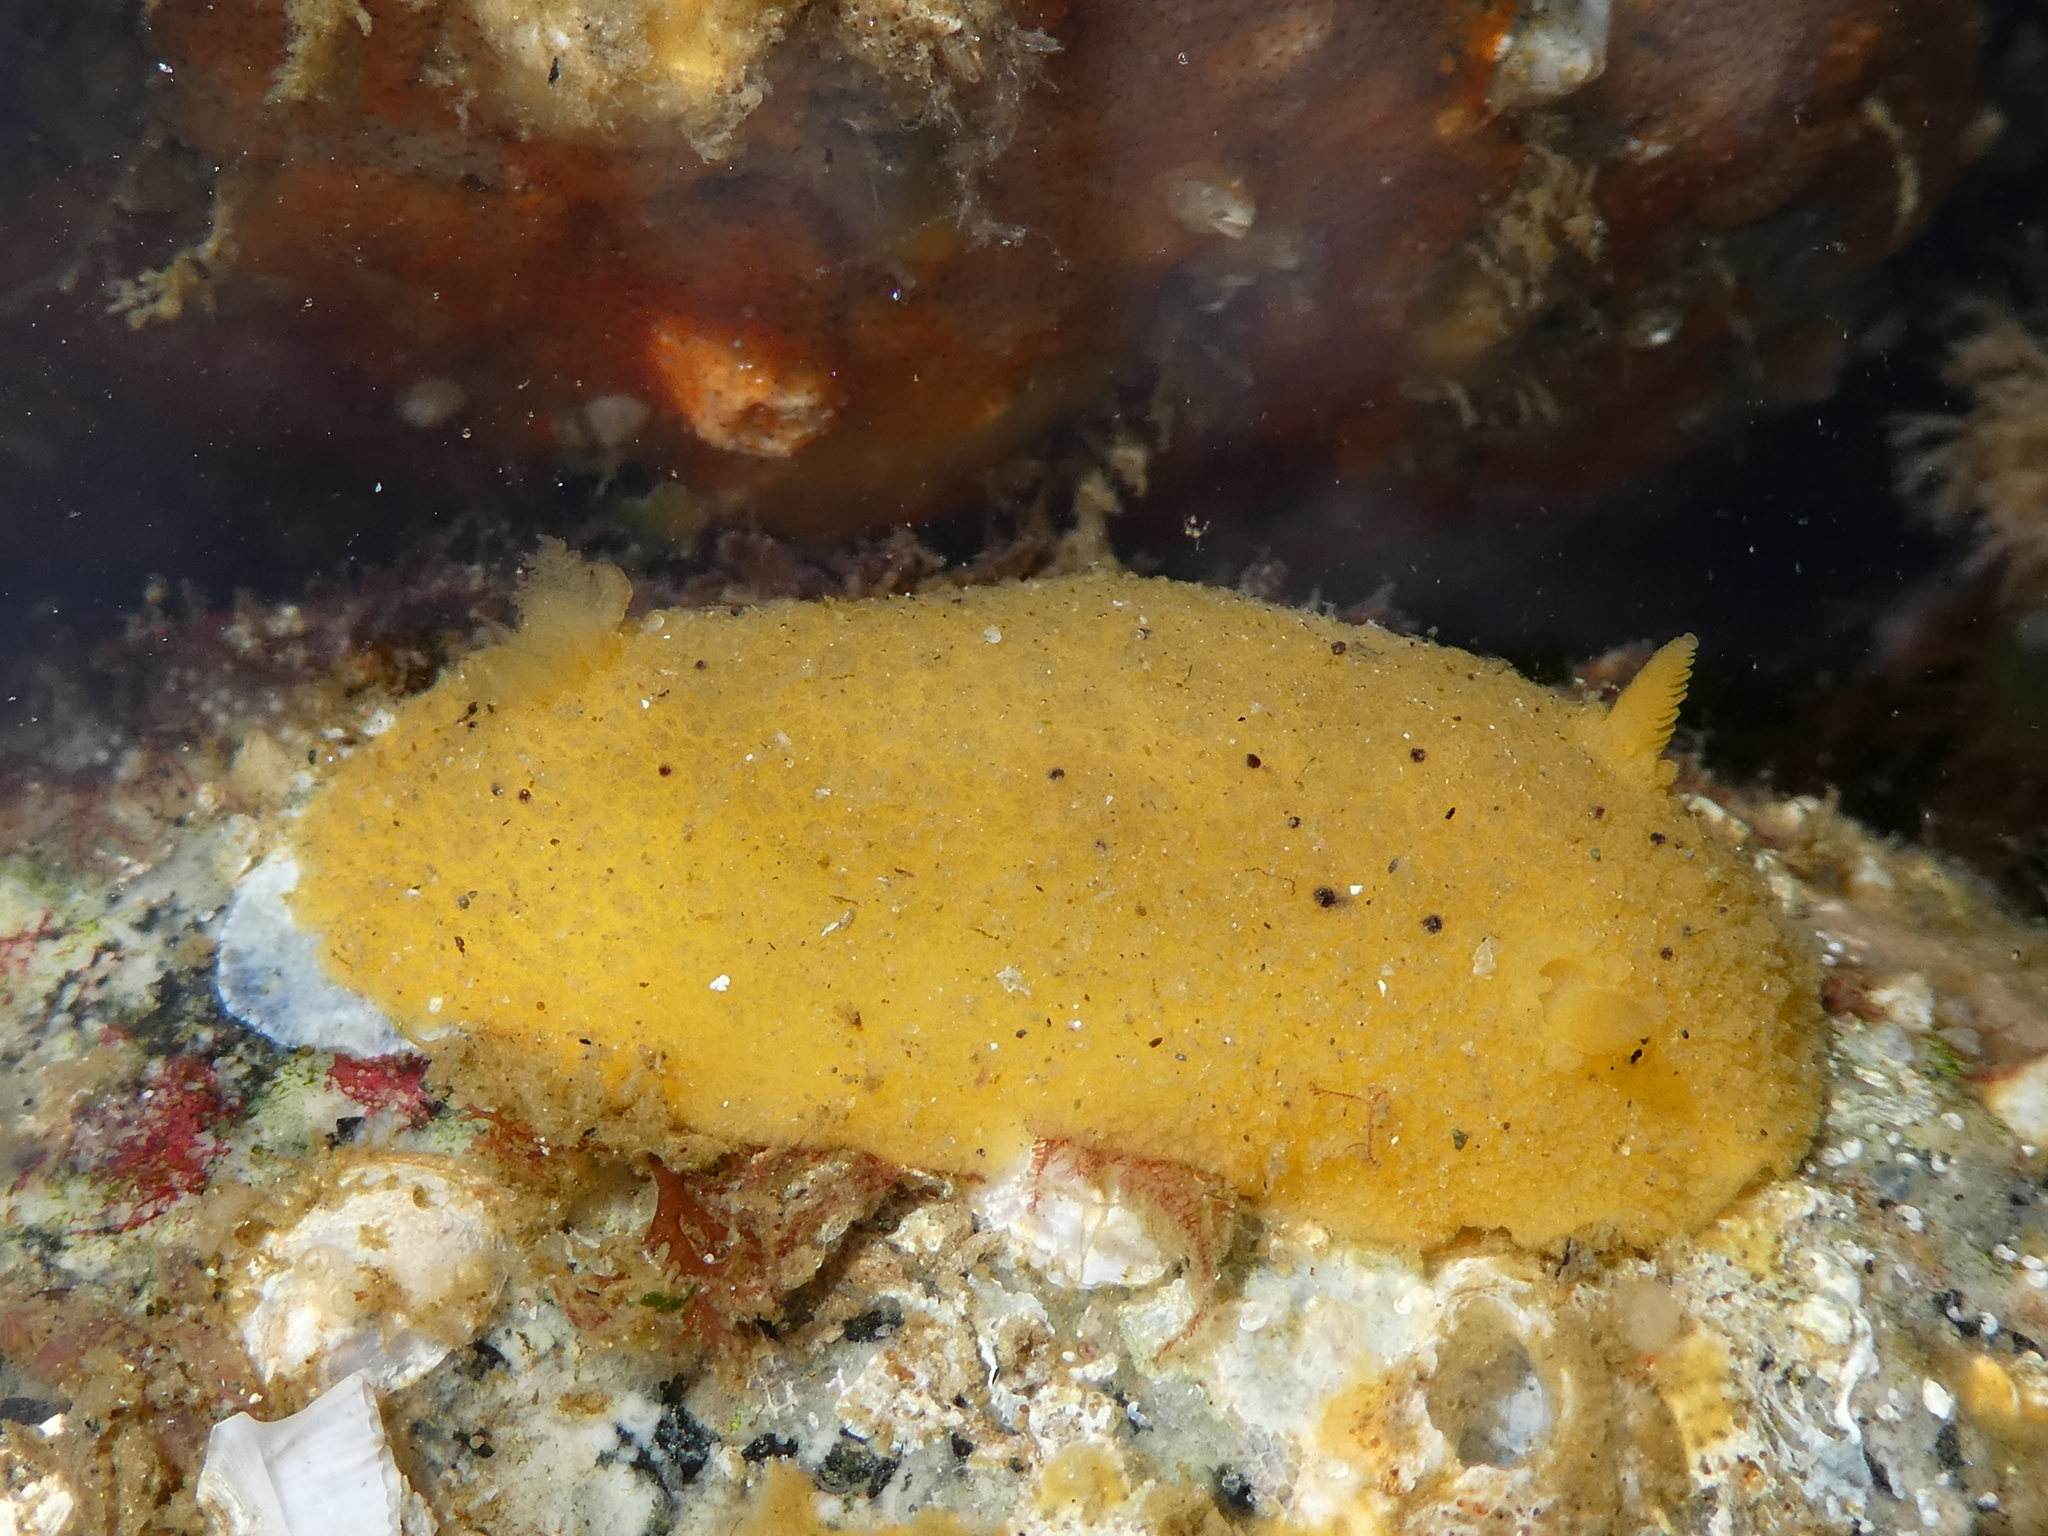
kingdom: Animalia
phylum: Mollusca
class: Gastropoda
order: Nudibranchia
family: Dorididae
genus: Doris
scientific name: Doris montereyensis
